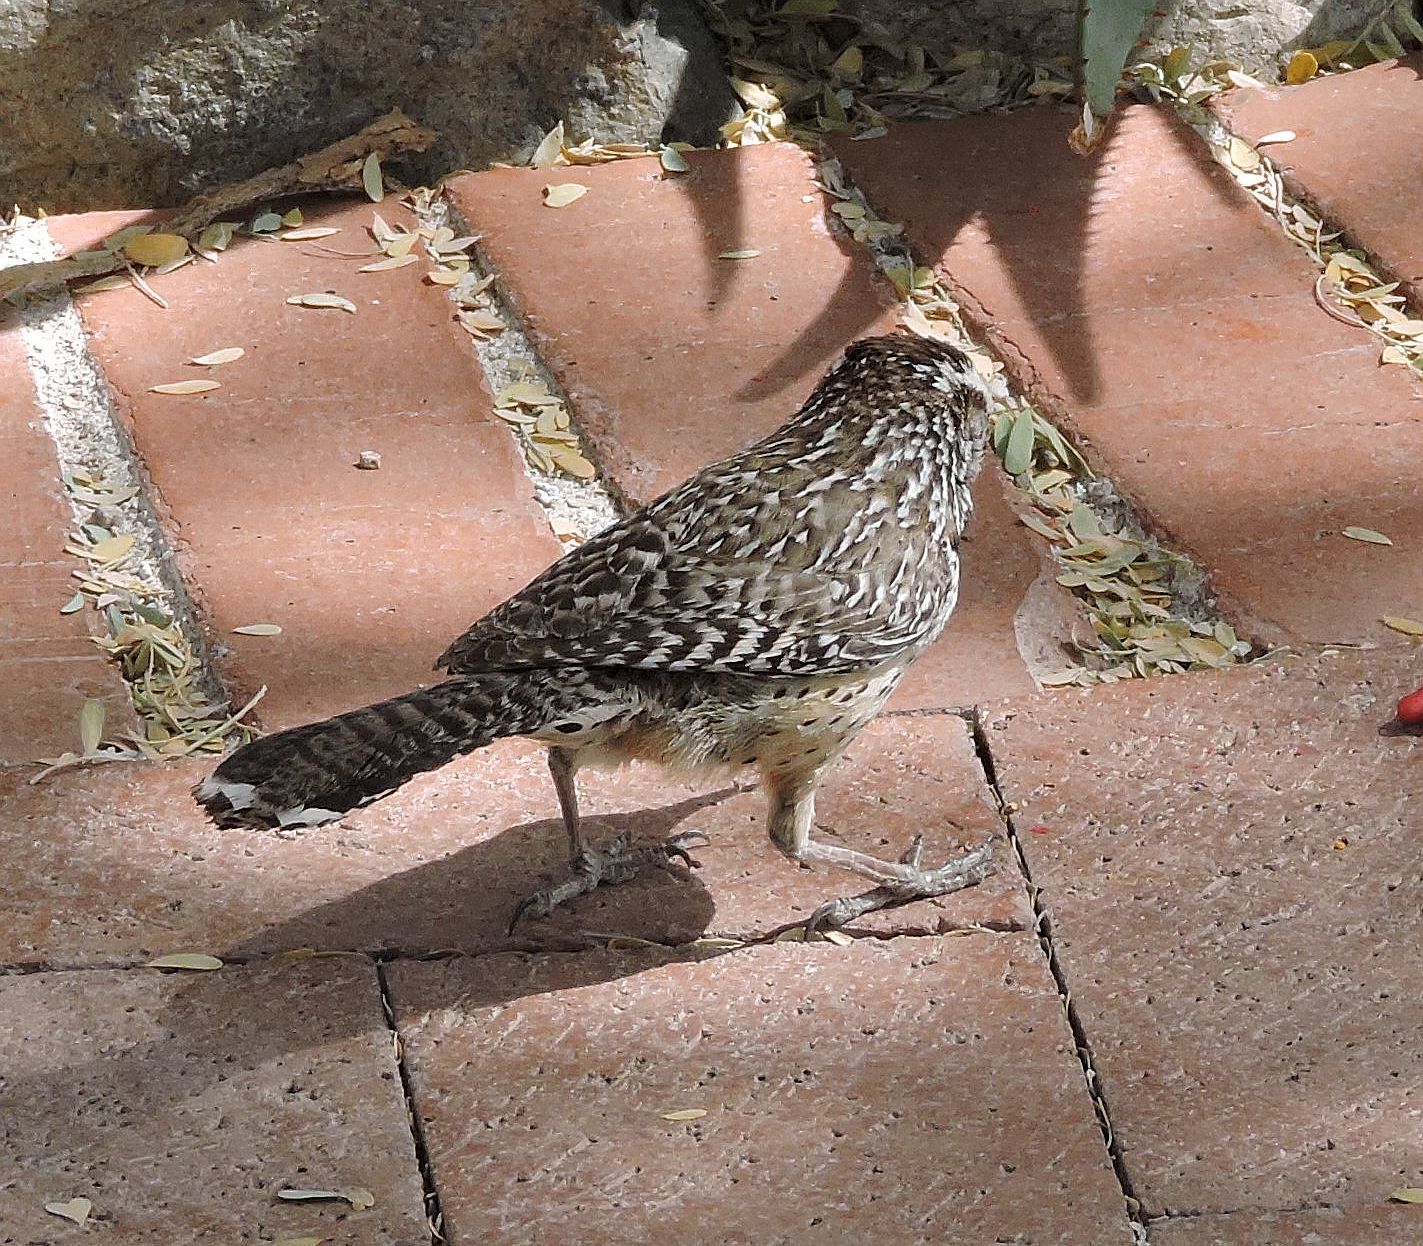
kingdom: Animalia
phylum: Chordata
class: Aves
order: Passeriformes
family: Troglodytidae
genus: Campylorhynchus
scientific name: Campylorhynchus brunneicapillus
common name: Cactus wren
